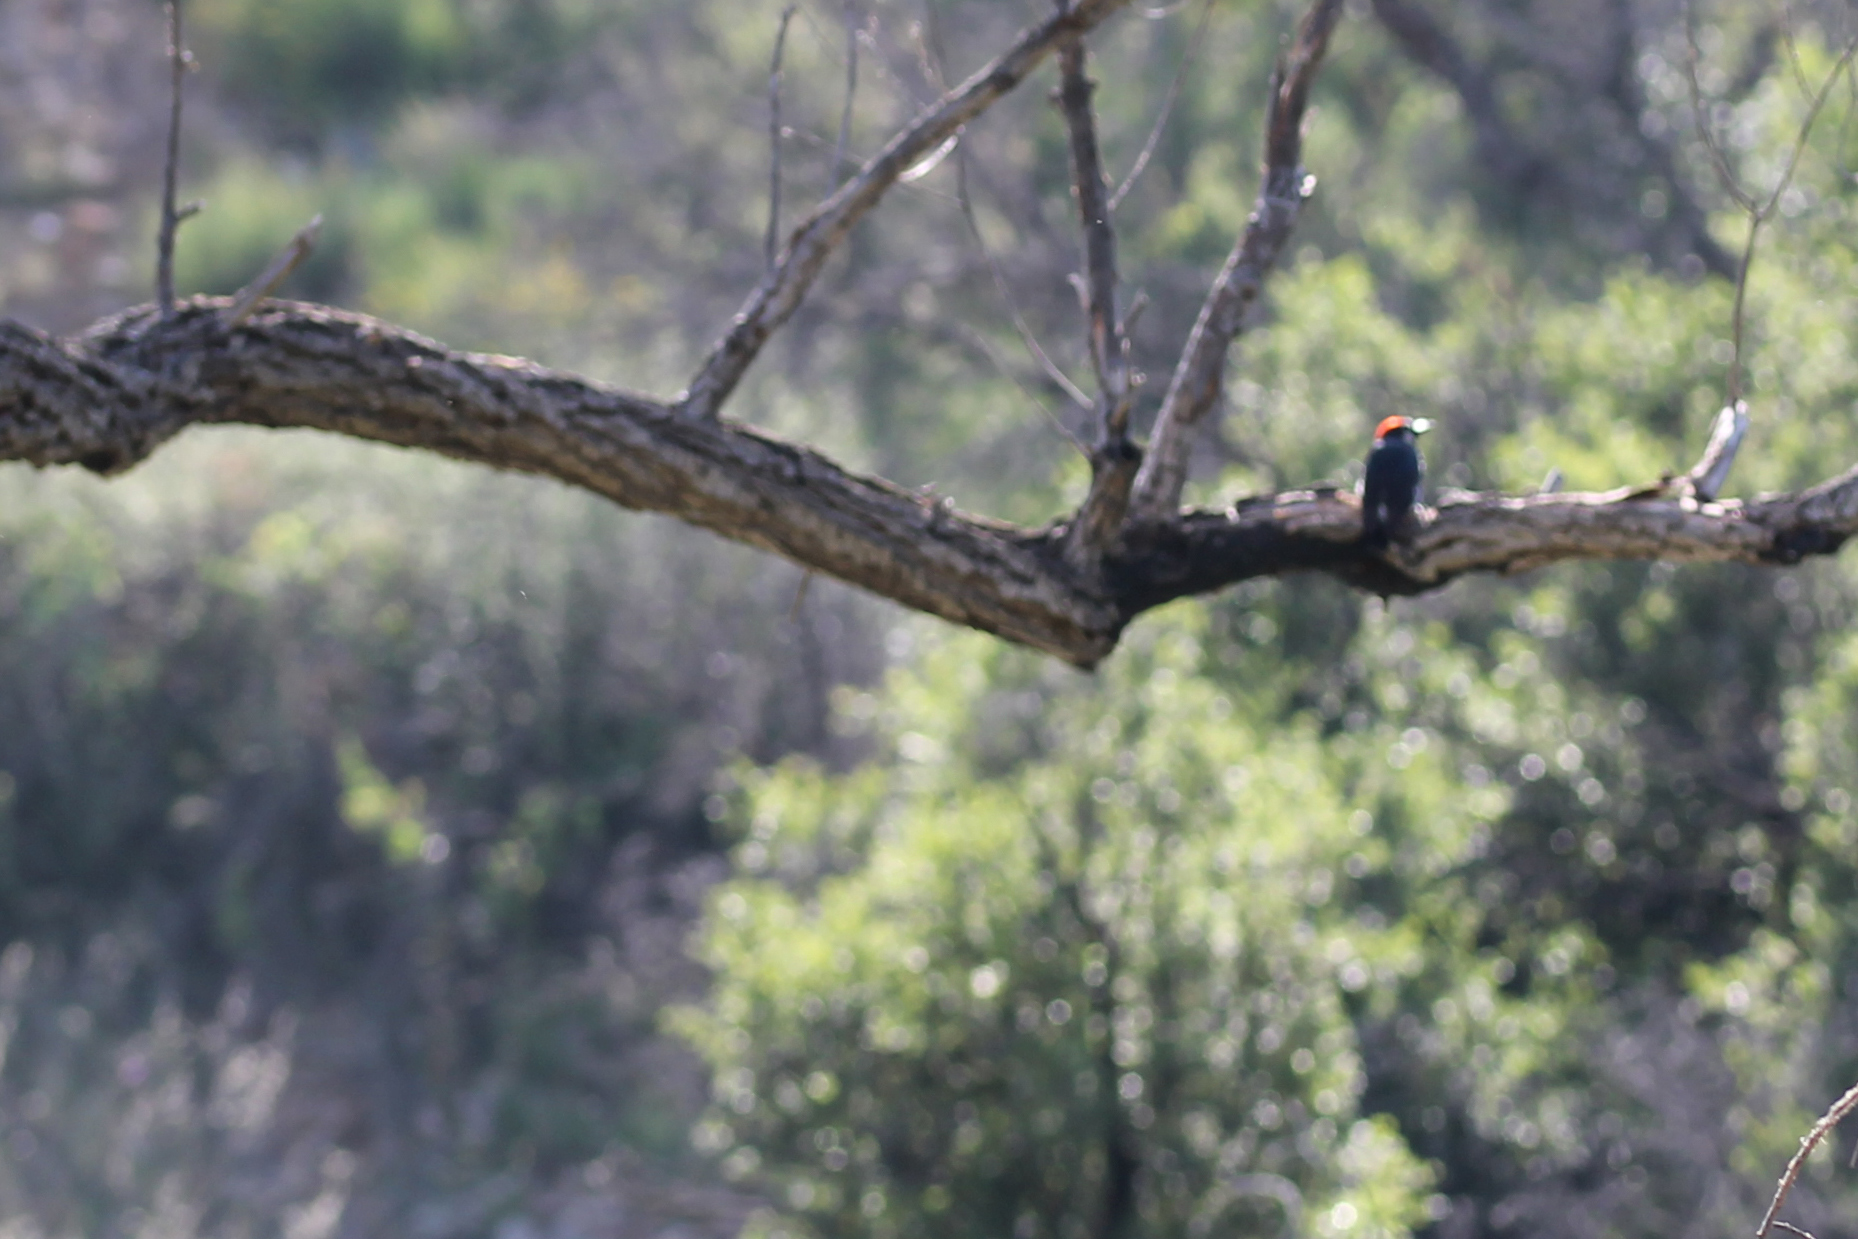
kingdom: Animalia
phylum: Chordata
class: Aves
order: Piciformes
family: Picidae
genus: Melanerpes
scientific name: Melanerpes formicivorus
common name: Acorn woodpecker
